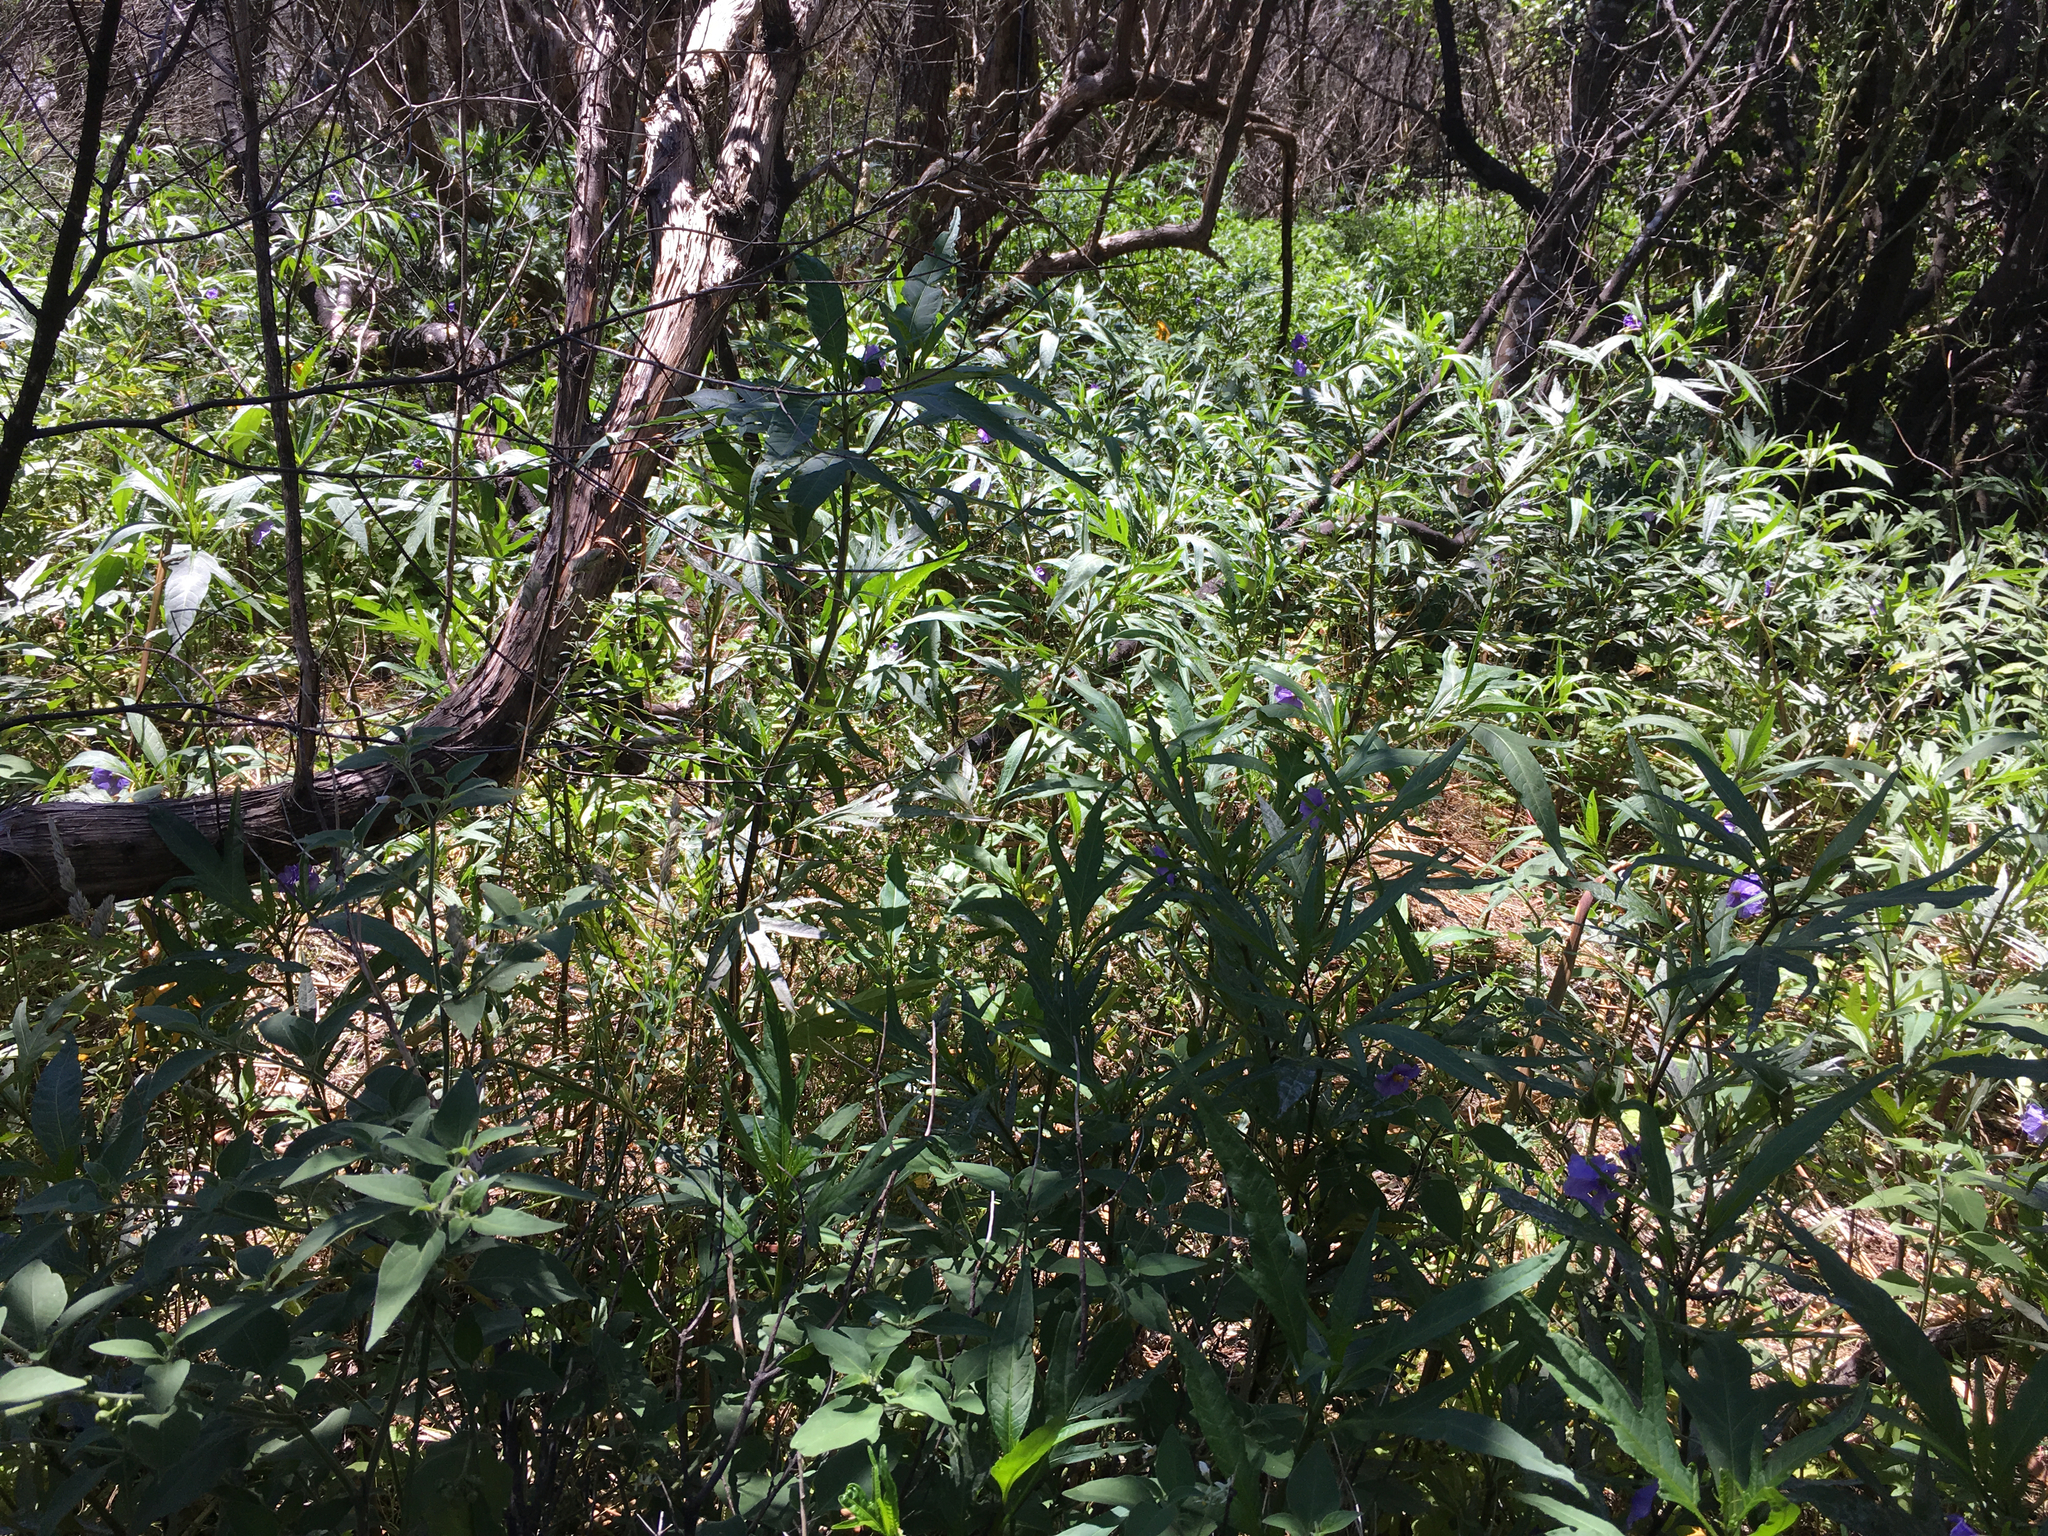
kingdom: Plantae
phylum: Tracheophyta
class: Magnoliopsida
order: Solanales
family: Solanaceae
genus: Solanum
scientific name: Solanum laciniatum
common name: Kangaroo-apple
